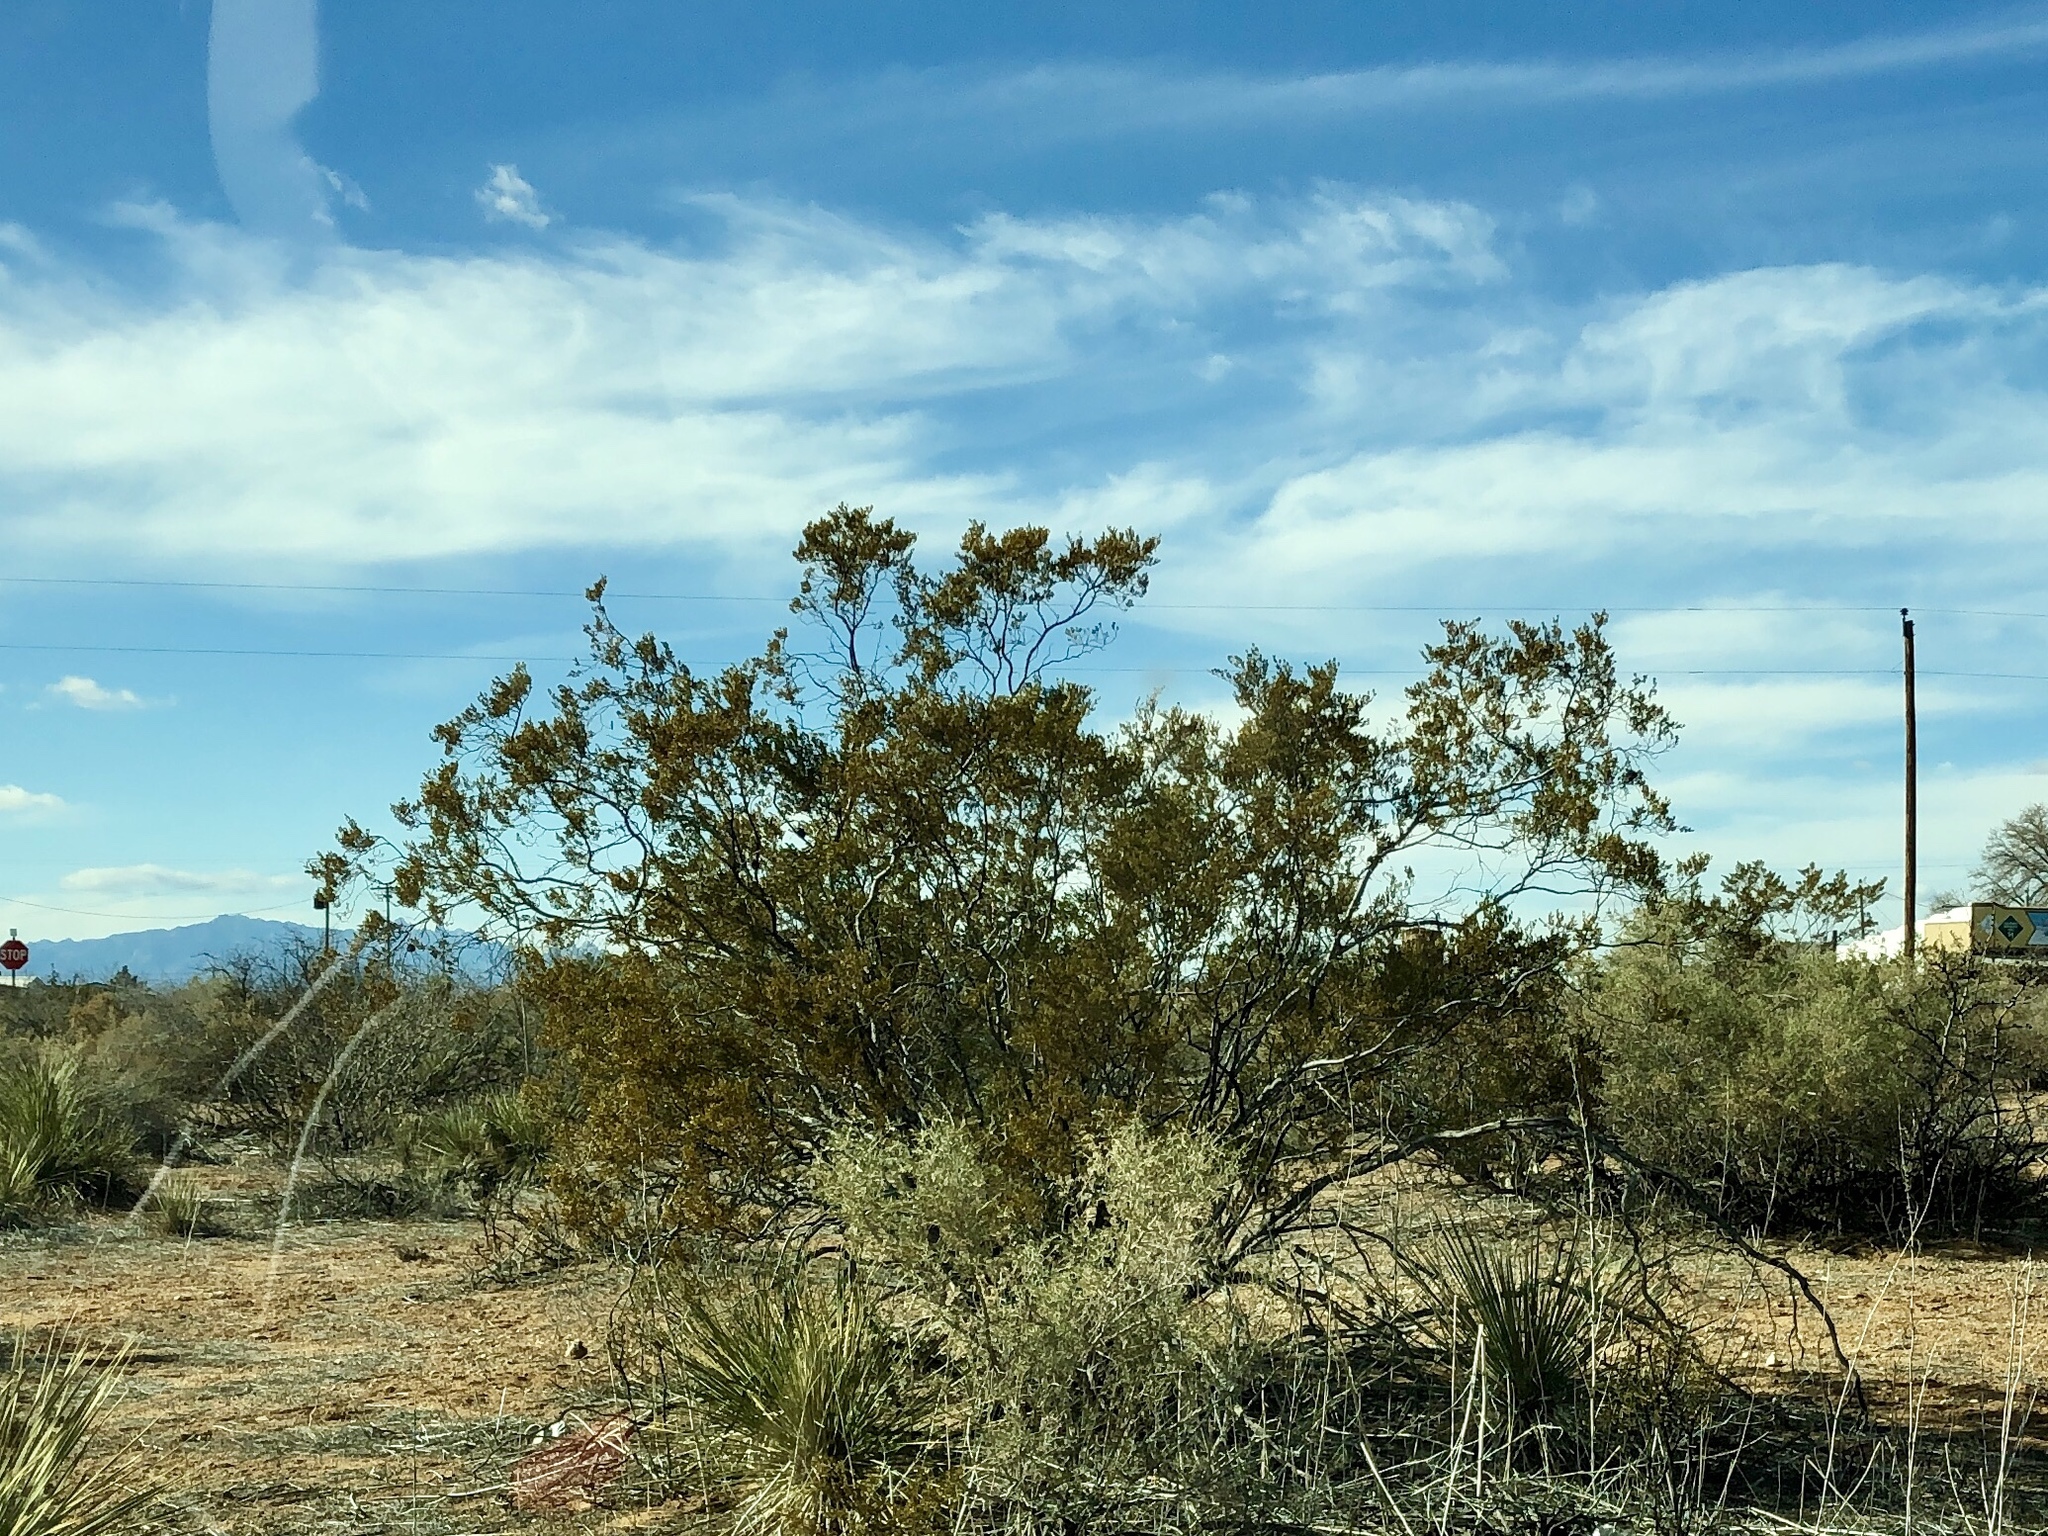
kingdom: Plantae
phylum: Tracheophyta
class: Magnoliopsida
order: Zygophyllales
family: Zygophyllaceae
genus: Larrea
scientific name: Larrea tridentata
